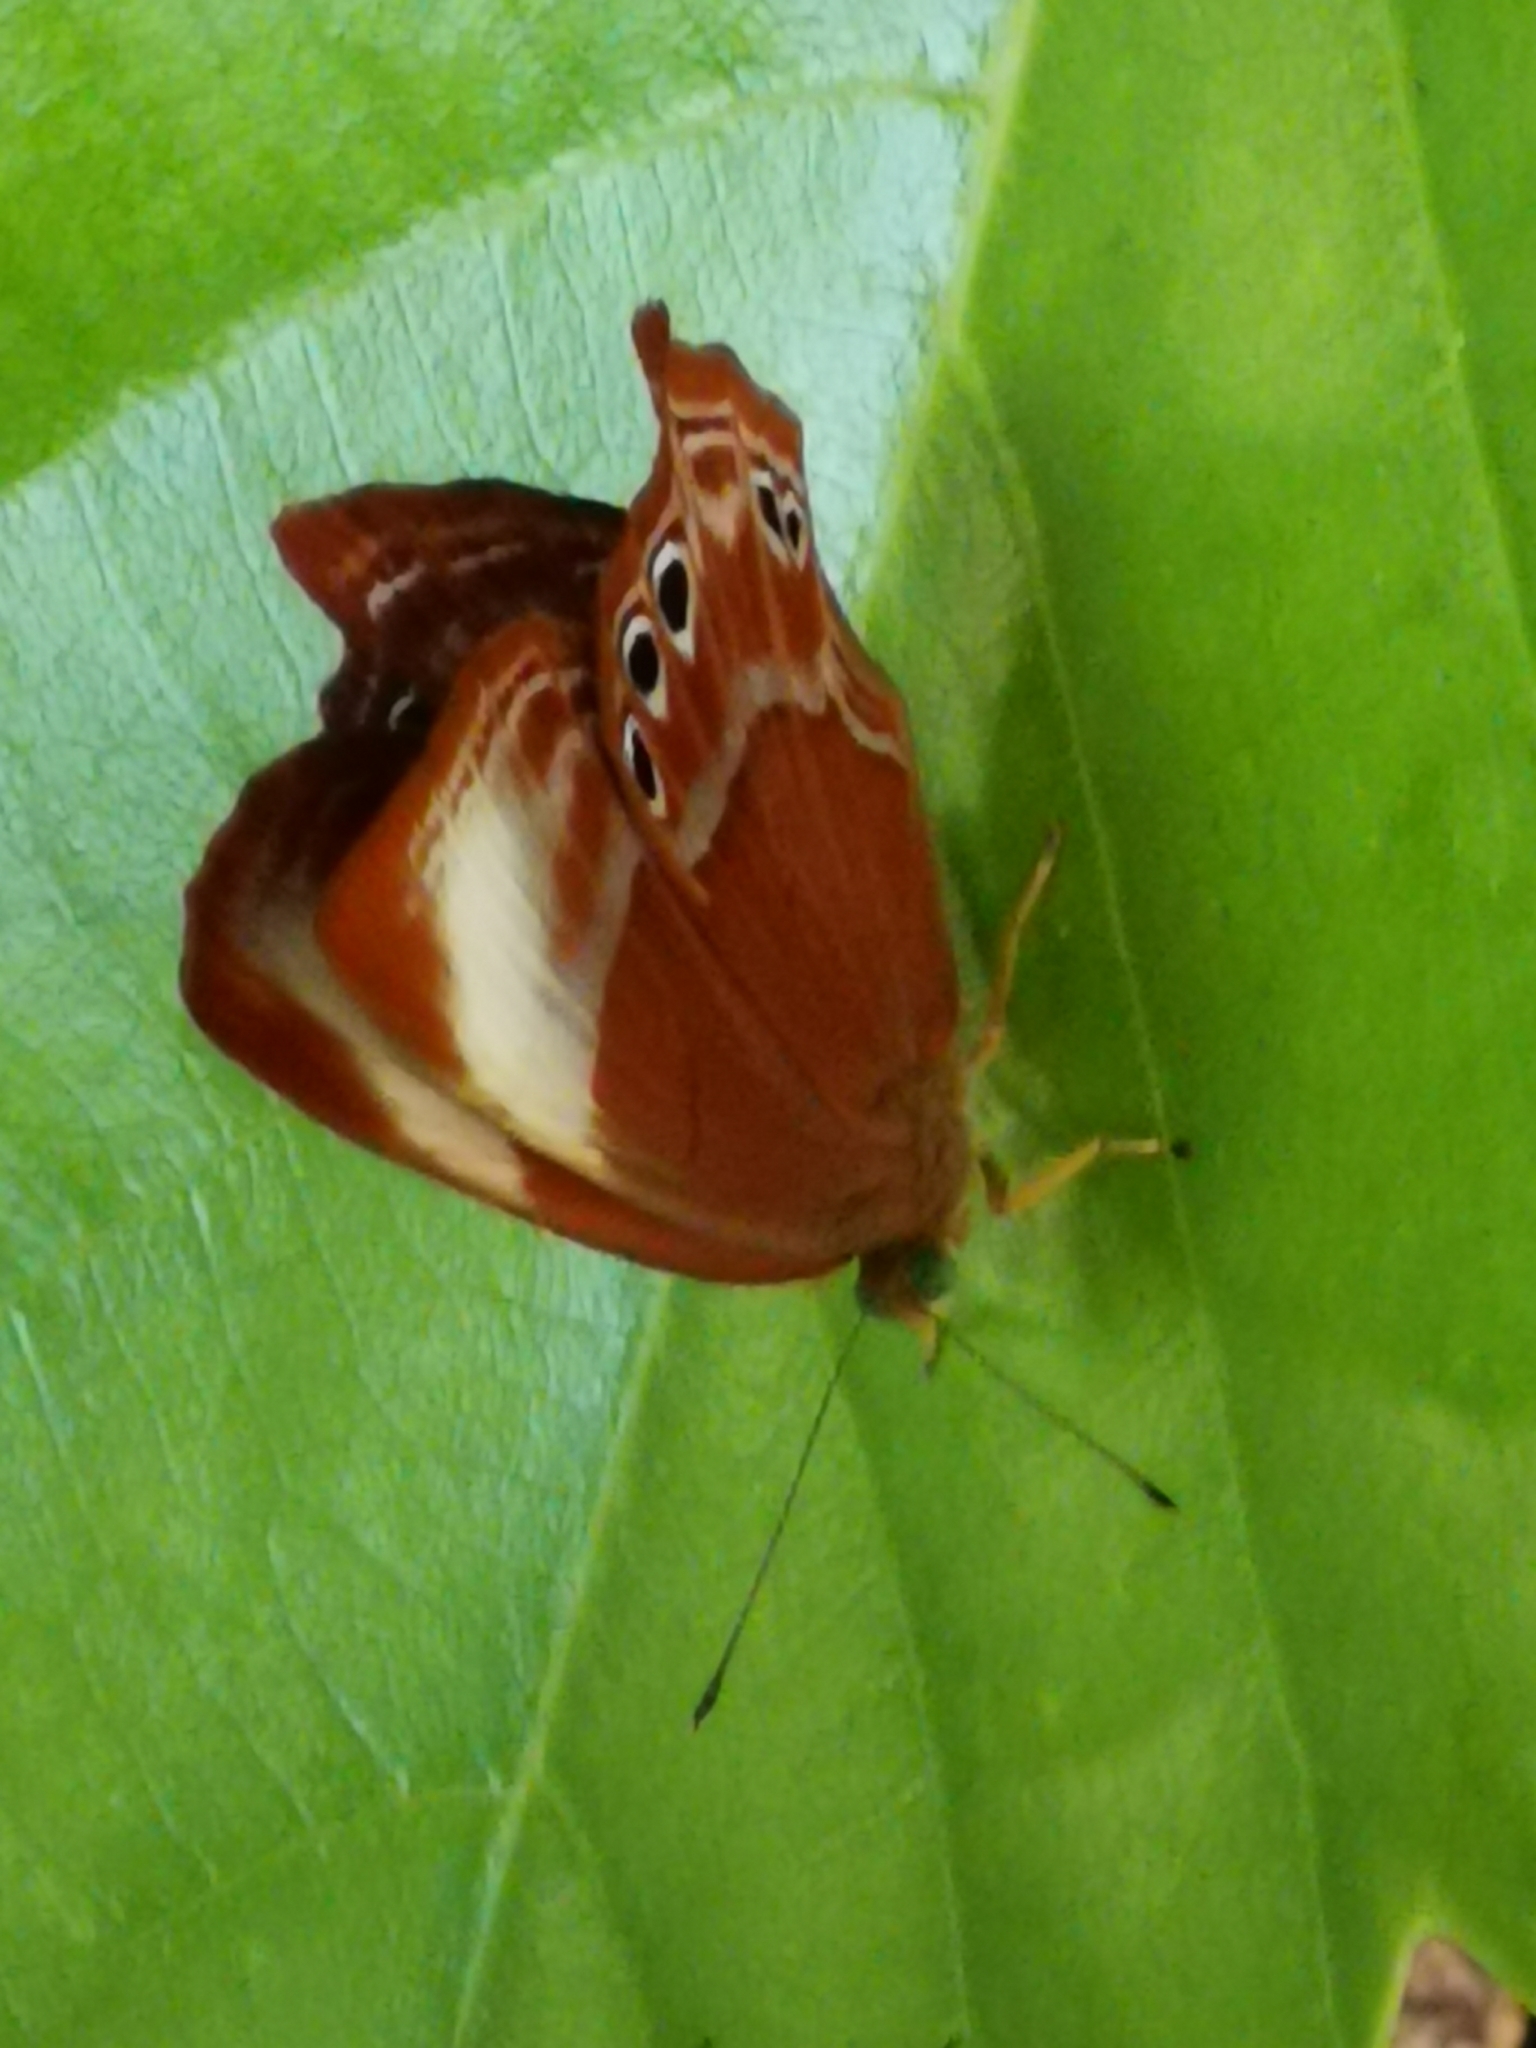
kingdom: Animalia
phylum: Arthropoda
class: Insecta
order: Lepidoptera
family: Lycaenidae
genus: Abisara
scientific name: Abisara saturata
